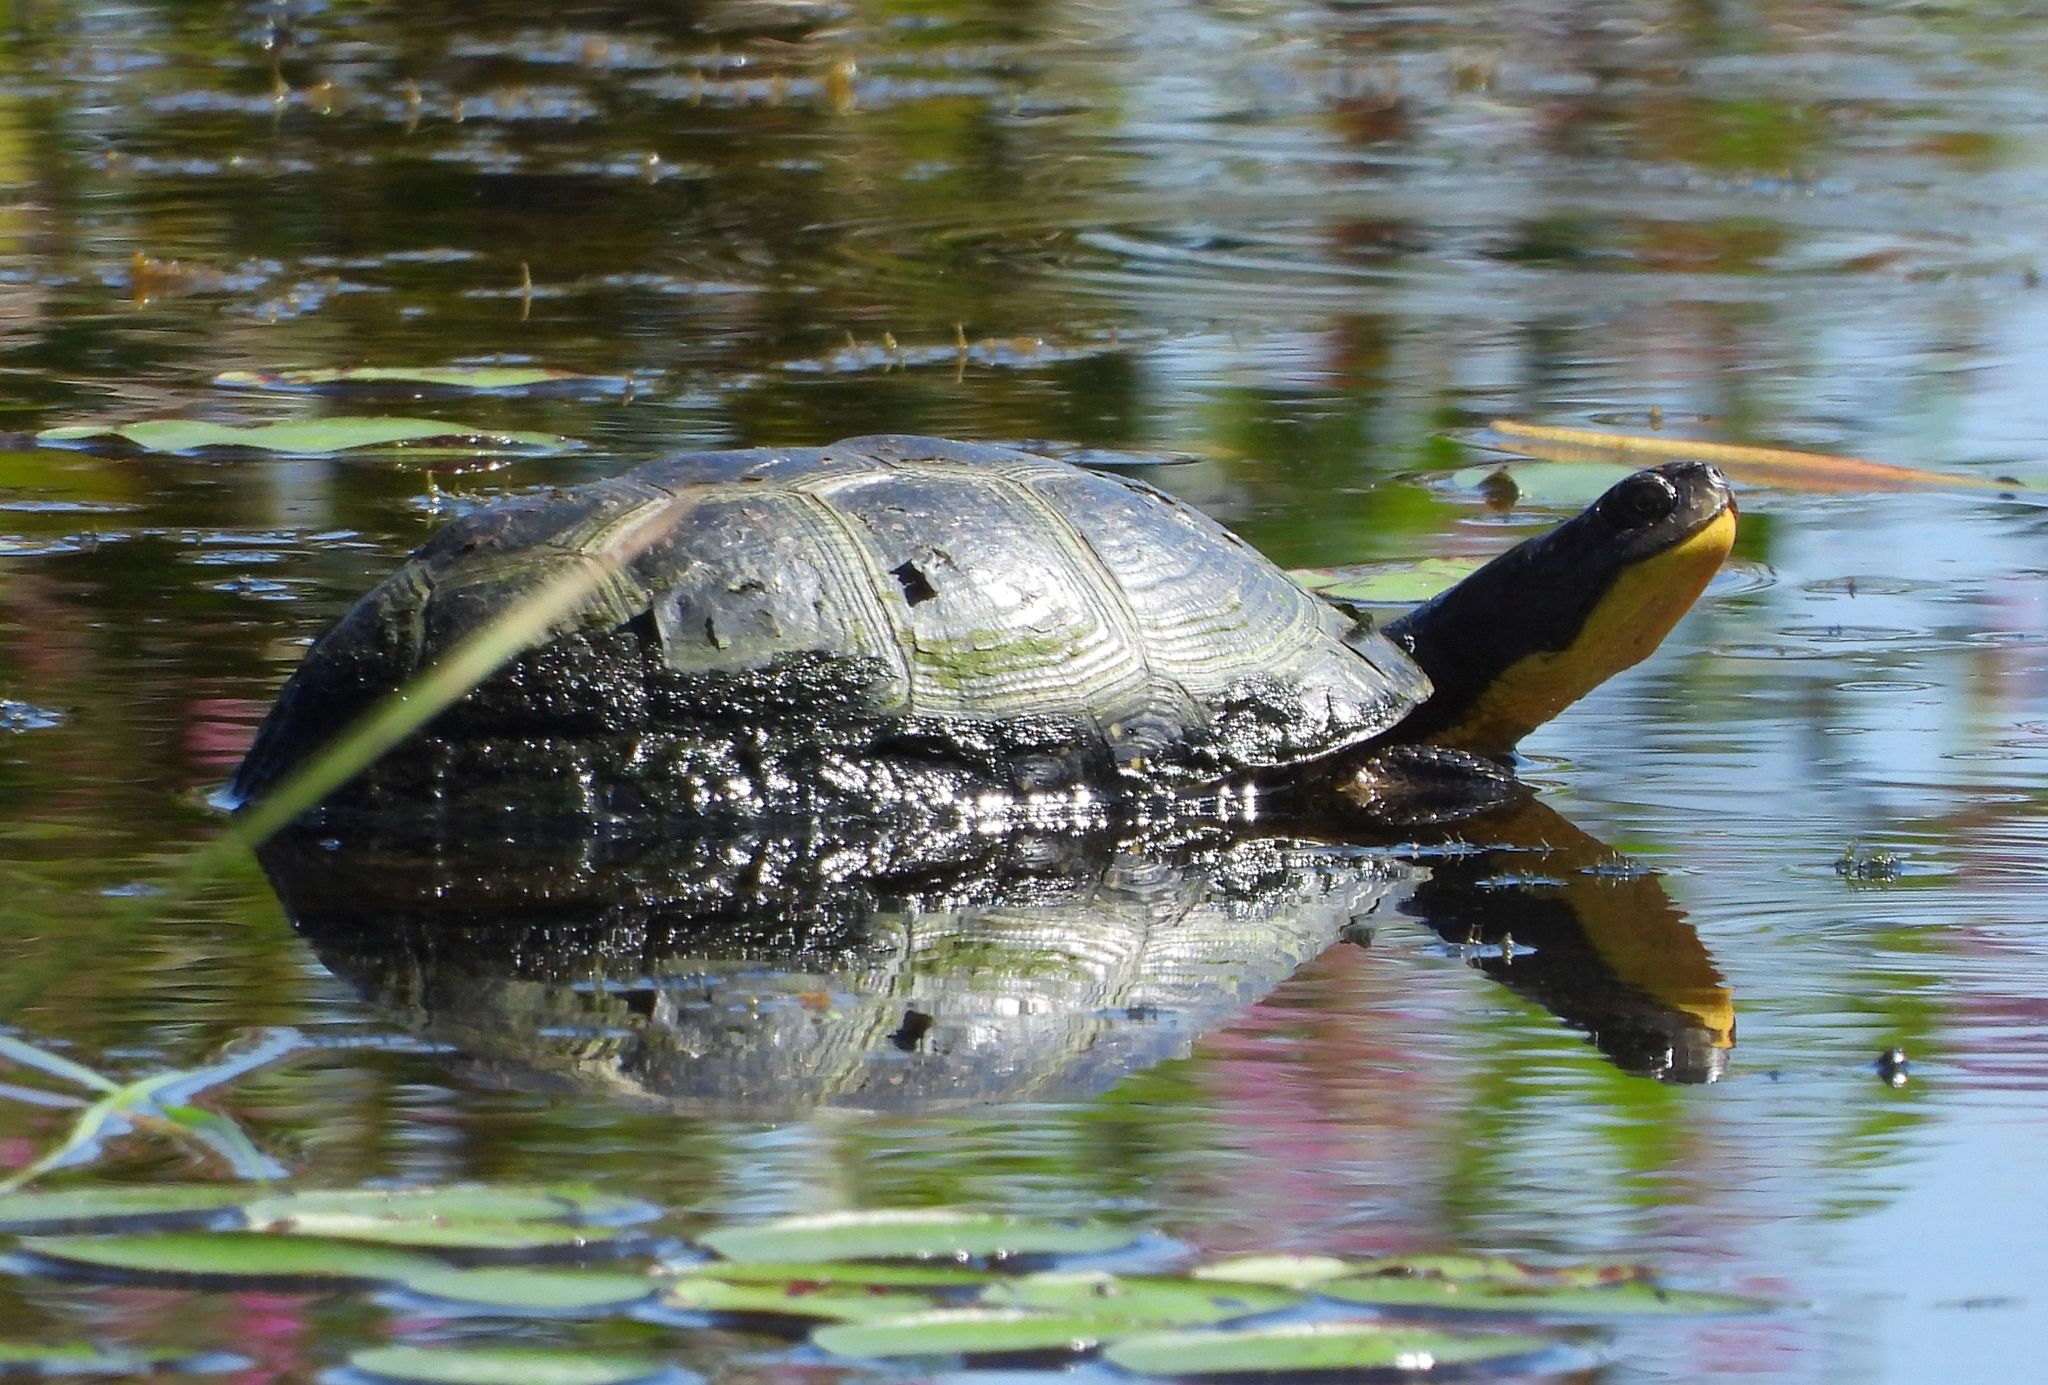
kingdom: Animalia
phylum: Chordata
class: Testudines
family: Emydidae
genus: Emys
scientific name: Emys blandingii
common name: Blanding's turtle
